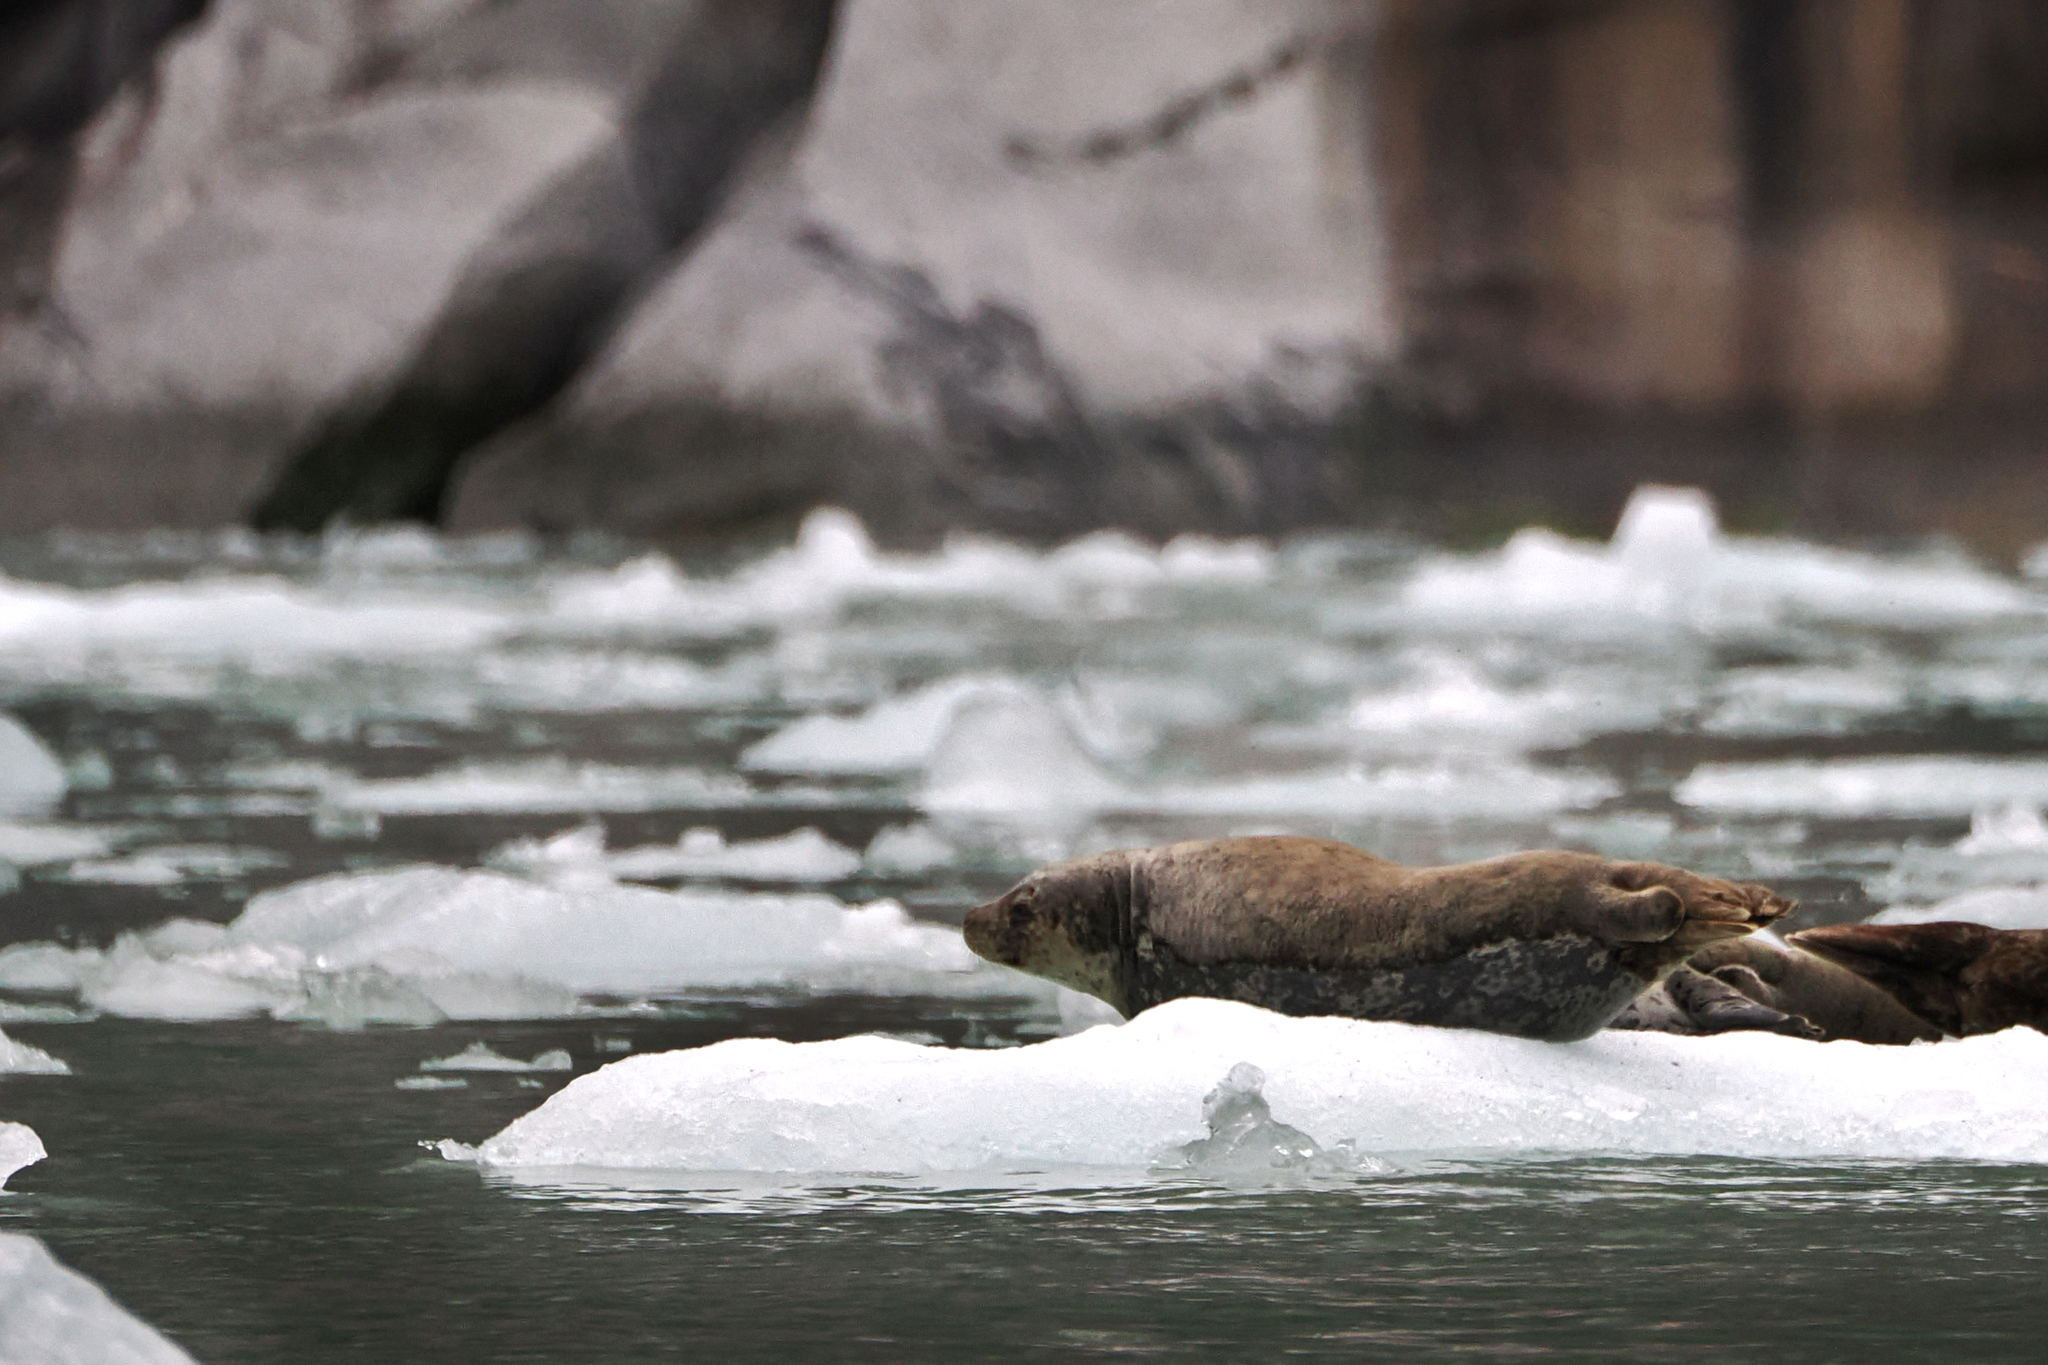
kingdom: Animalia
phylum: Chordata
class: Mammalia
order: Carnivora
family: Phocidae
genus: Phoca
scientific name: Phoca vitulina
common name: Harbor seal
